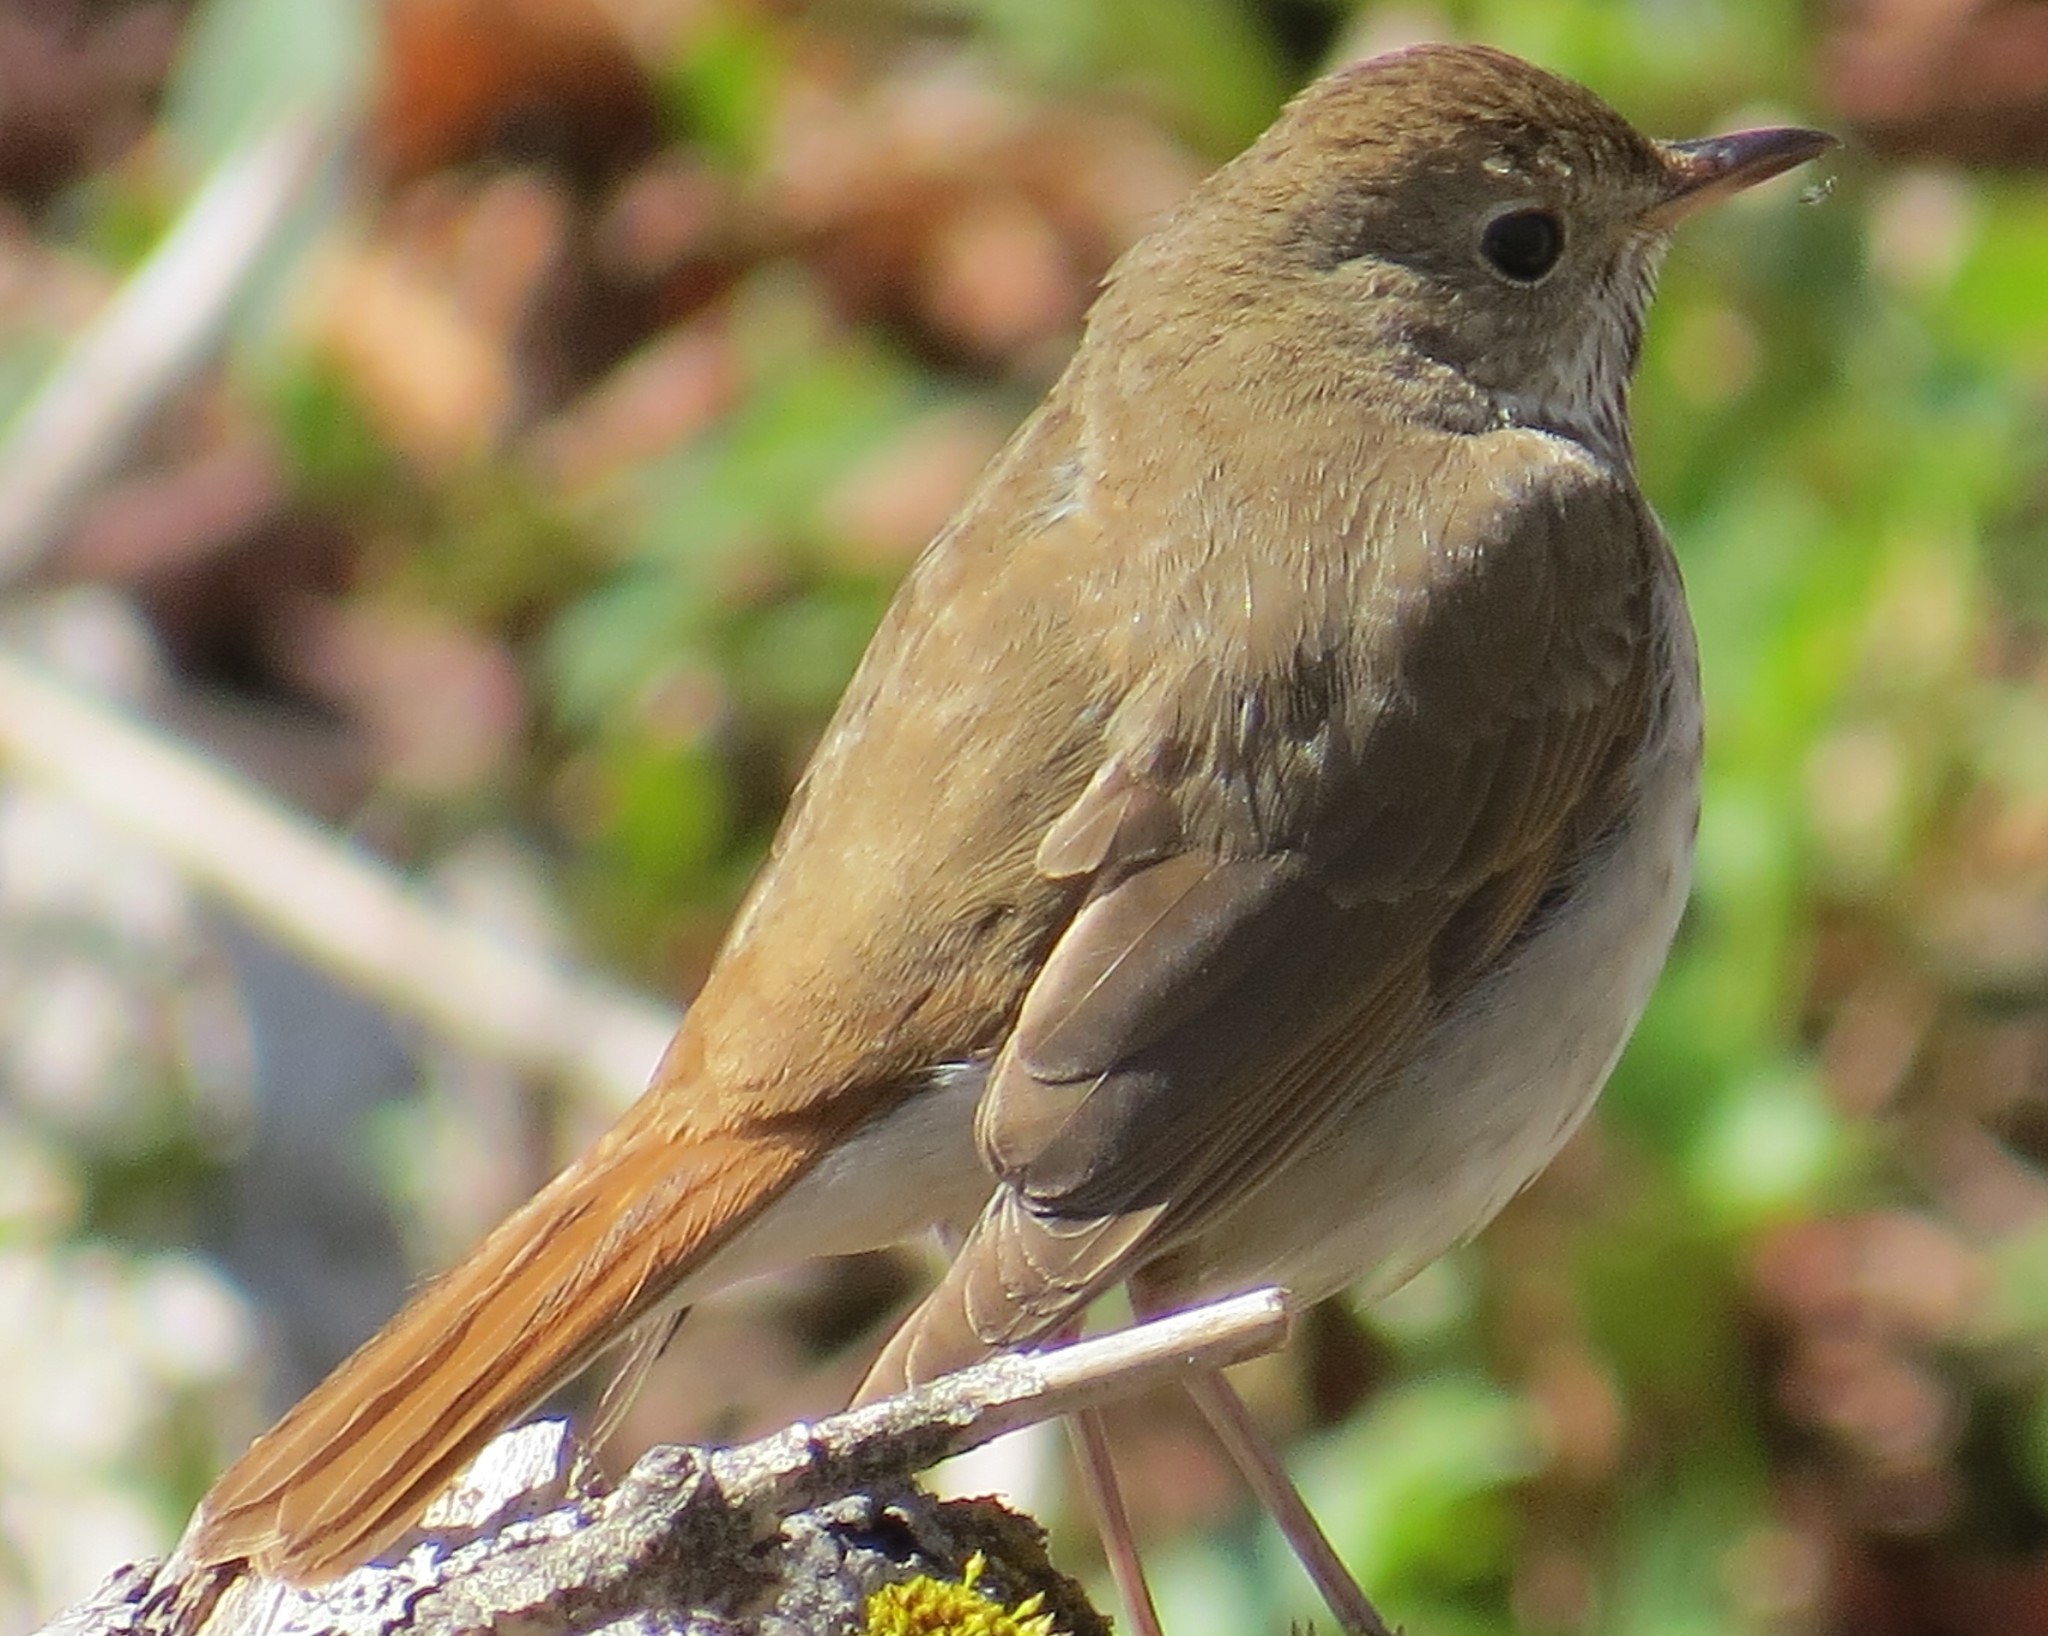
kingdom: Animalia
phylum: Chordata
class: Aves
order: Passeriformes
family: Turdidae
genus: Catharus
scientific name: Catharus guttatus
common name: Hermit thrush
